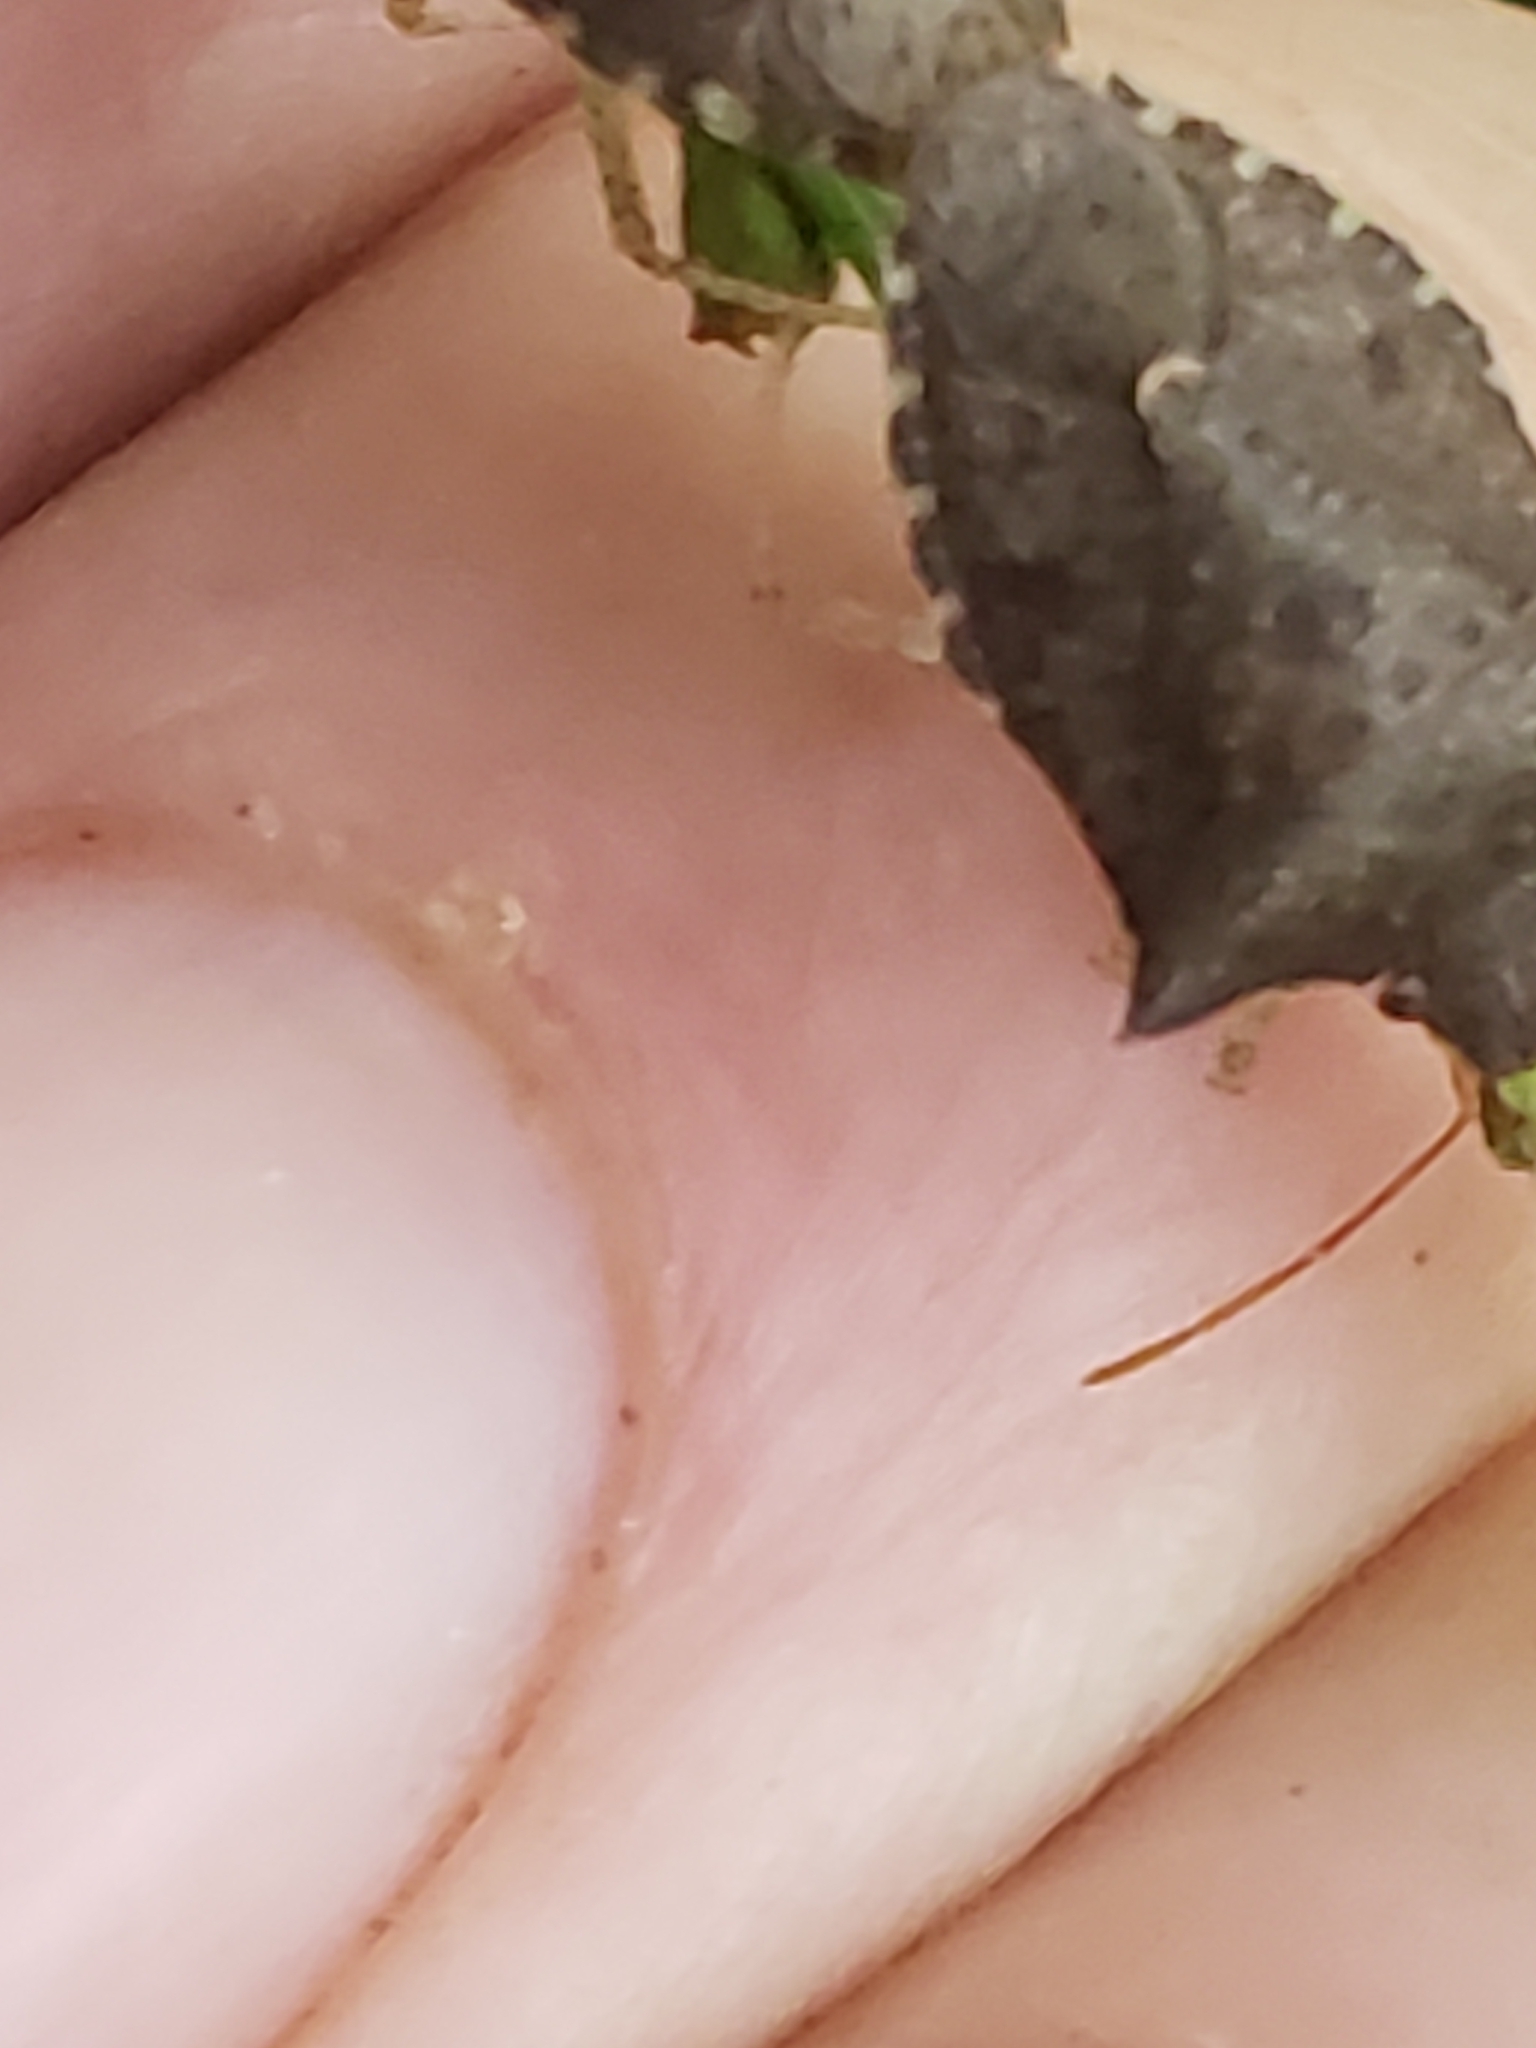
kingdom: Animalia
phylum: Arthropoda
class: Insecta
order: Hemiptera
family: Pentatomidae
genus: Euschistus
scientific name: Euschistus tristigmus
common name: Dusky stink bug
